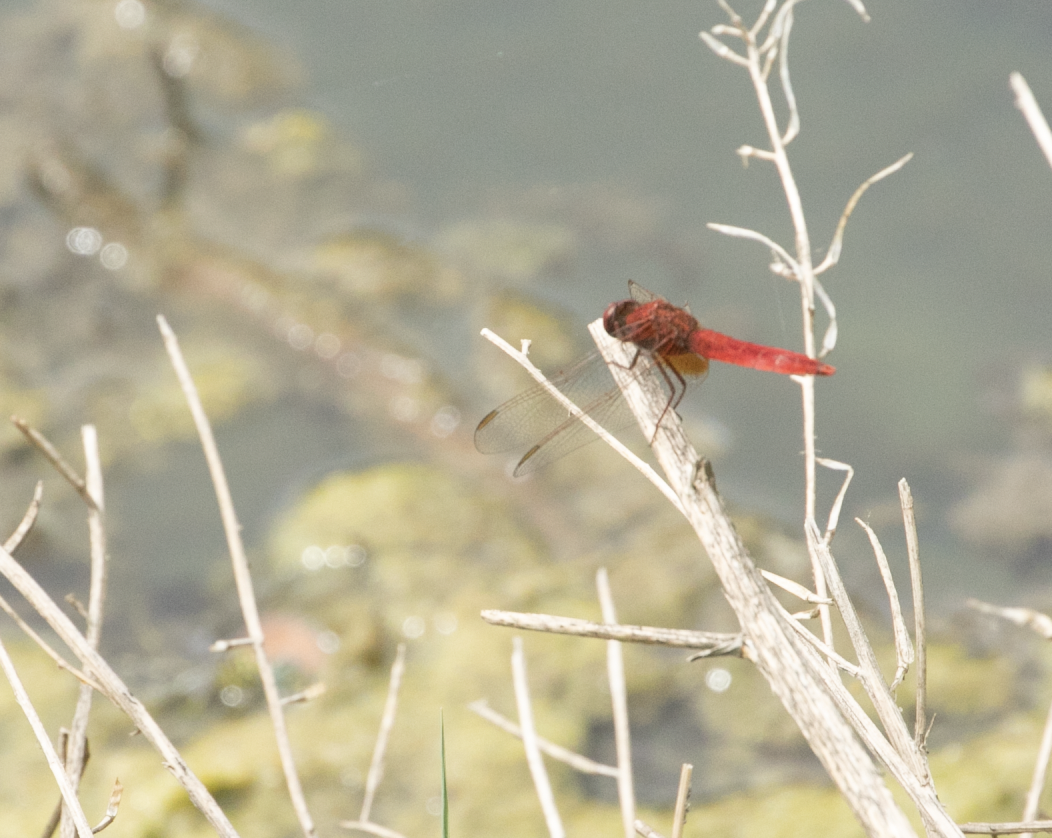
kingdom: Animalia
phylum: Arthropoda
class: Insecta
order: Odonata
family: Libellulidae
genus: Crocothemis
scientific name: Crocothemis erythraea
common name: Scarlet dragonfly
